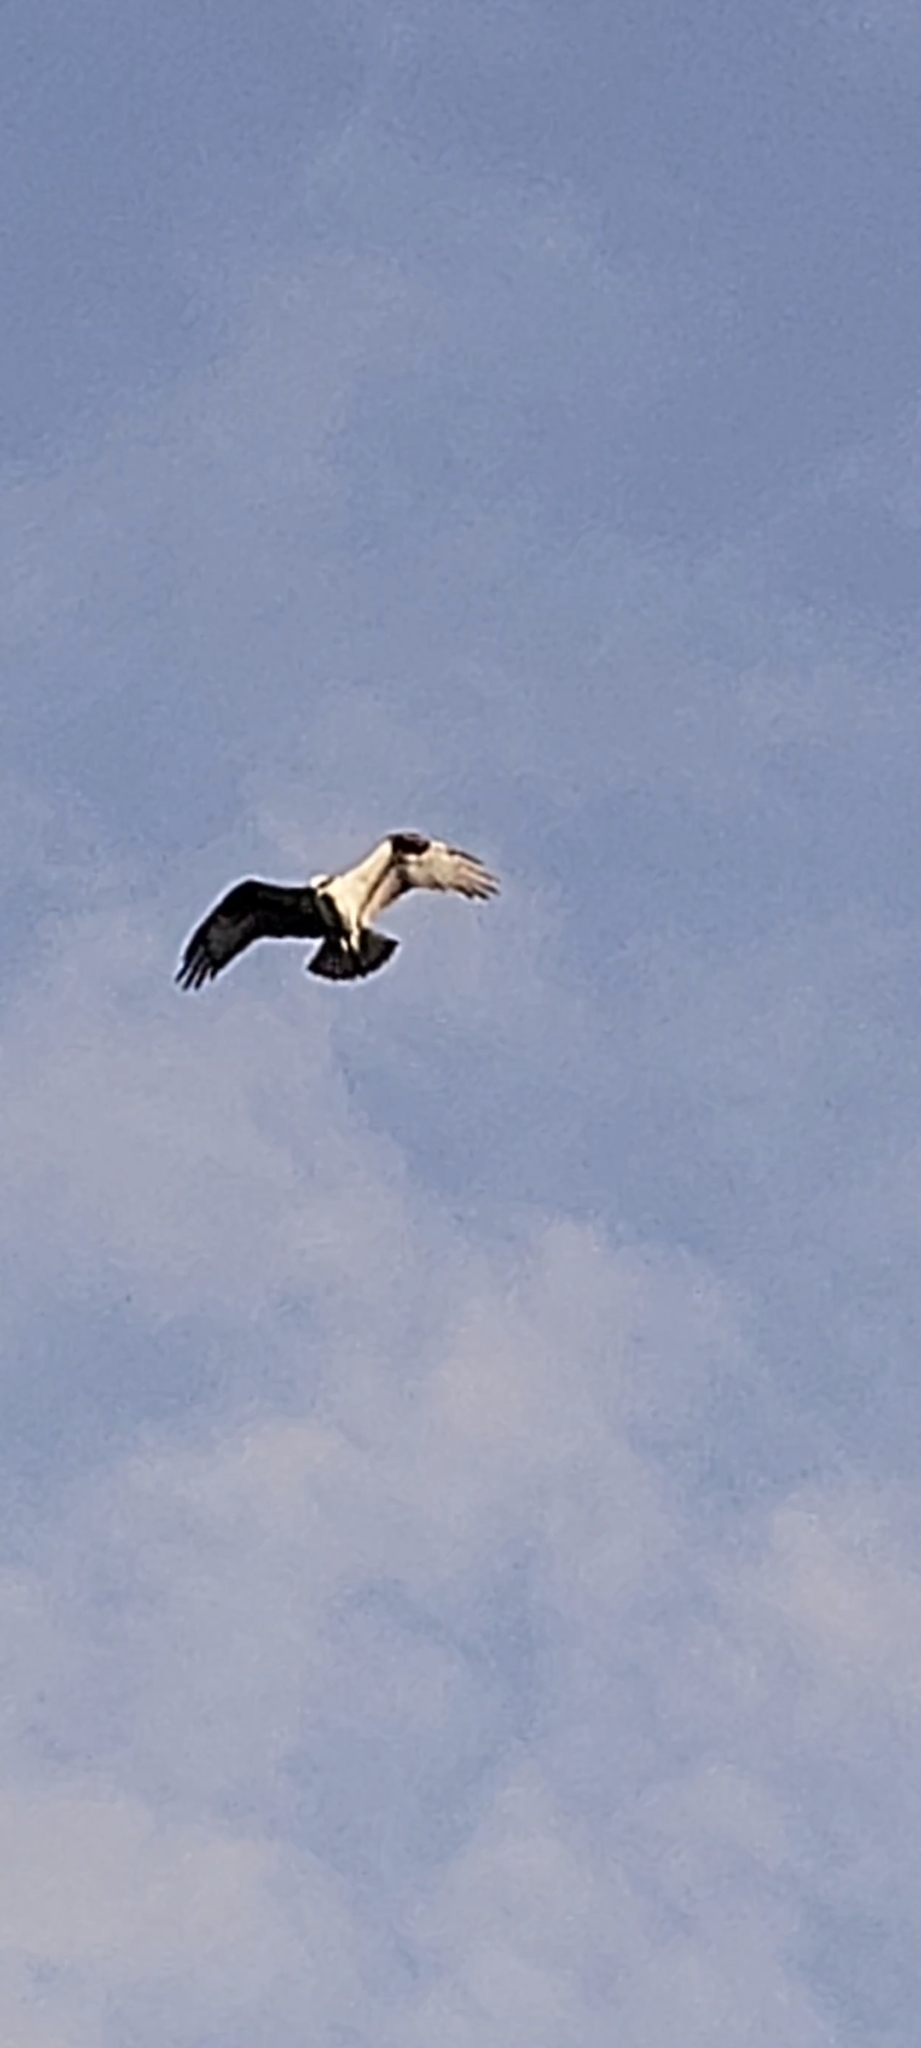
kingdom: Animalia
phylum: Chordata
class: Aves
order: Accipitriformes
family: Pandionidae
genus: Pandion
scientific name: Pandion haliaetus
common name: Osprey
